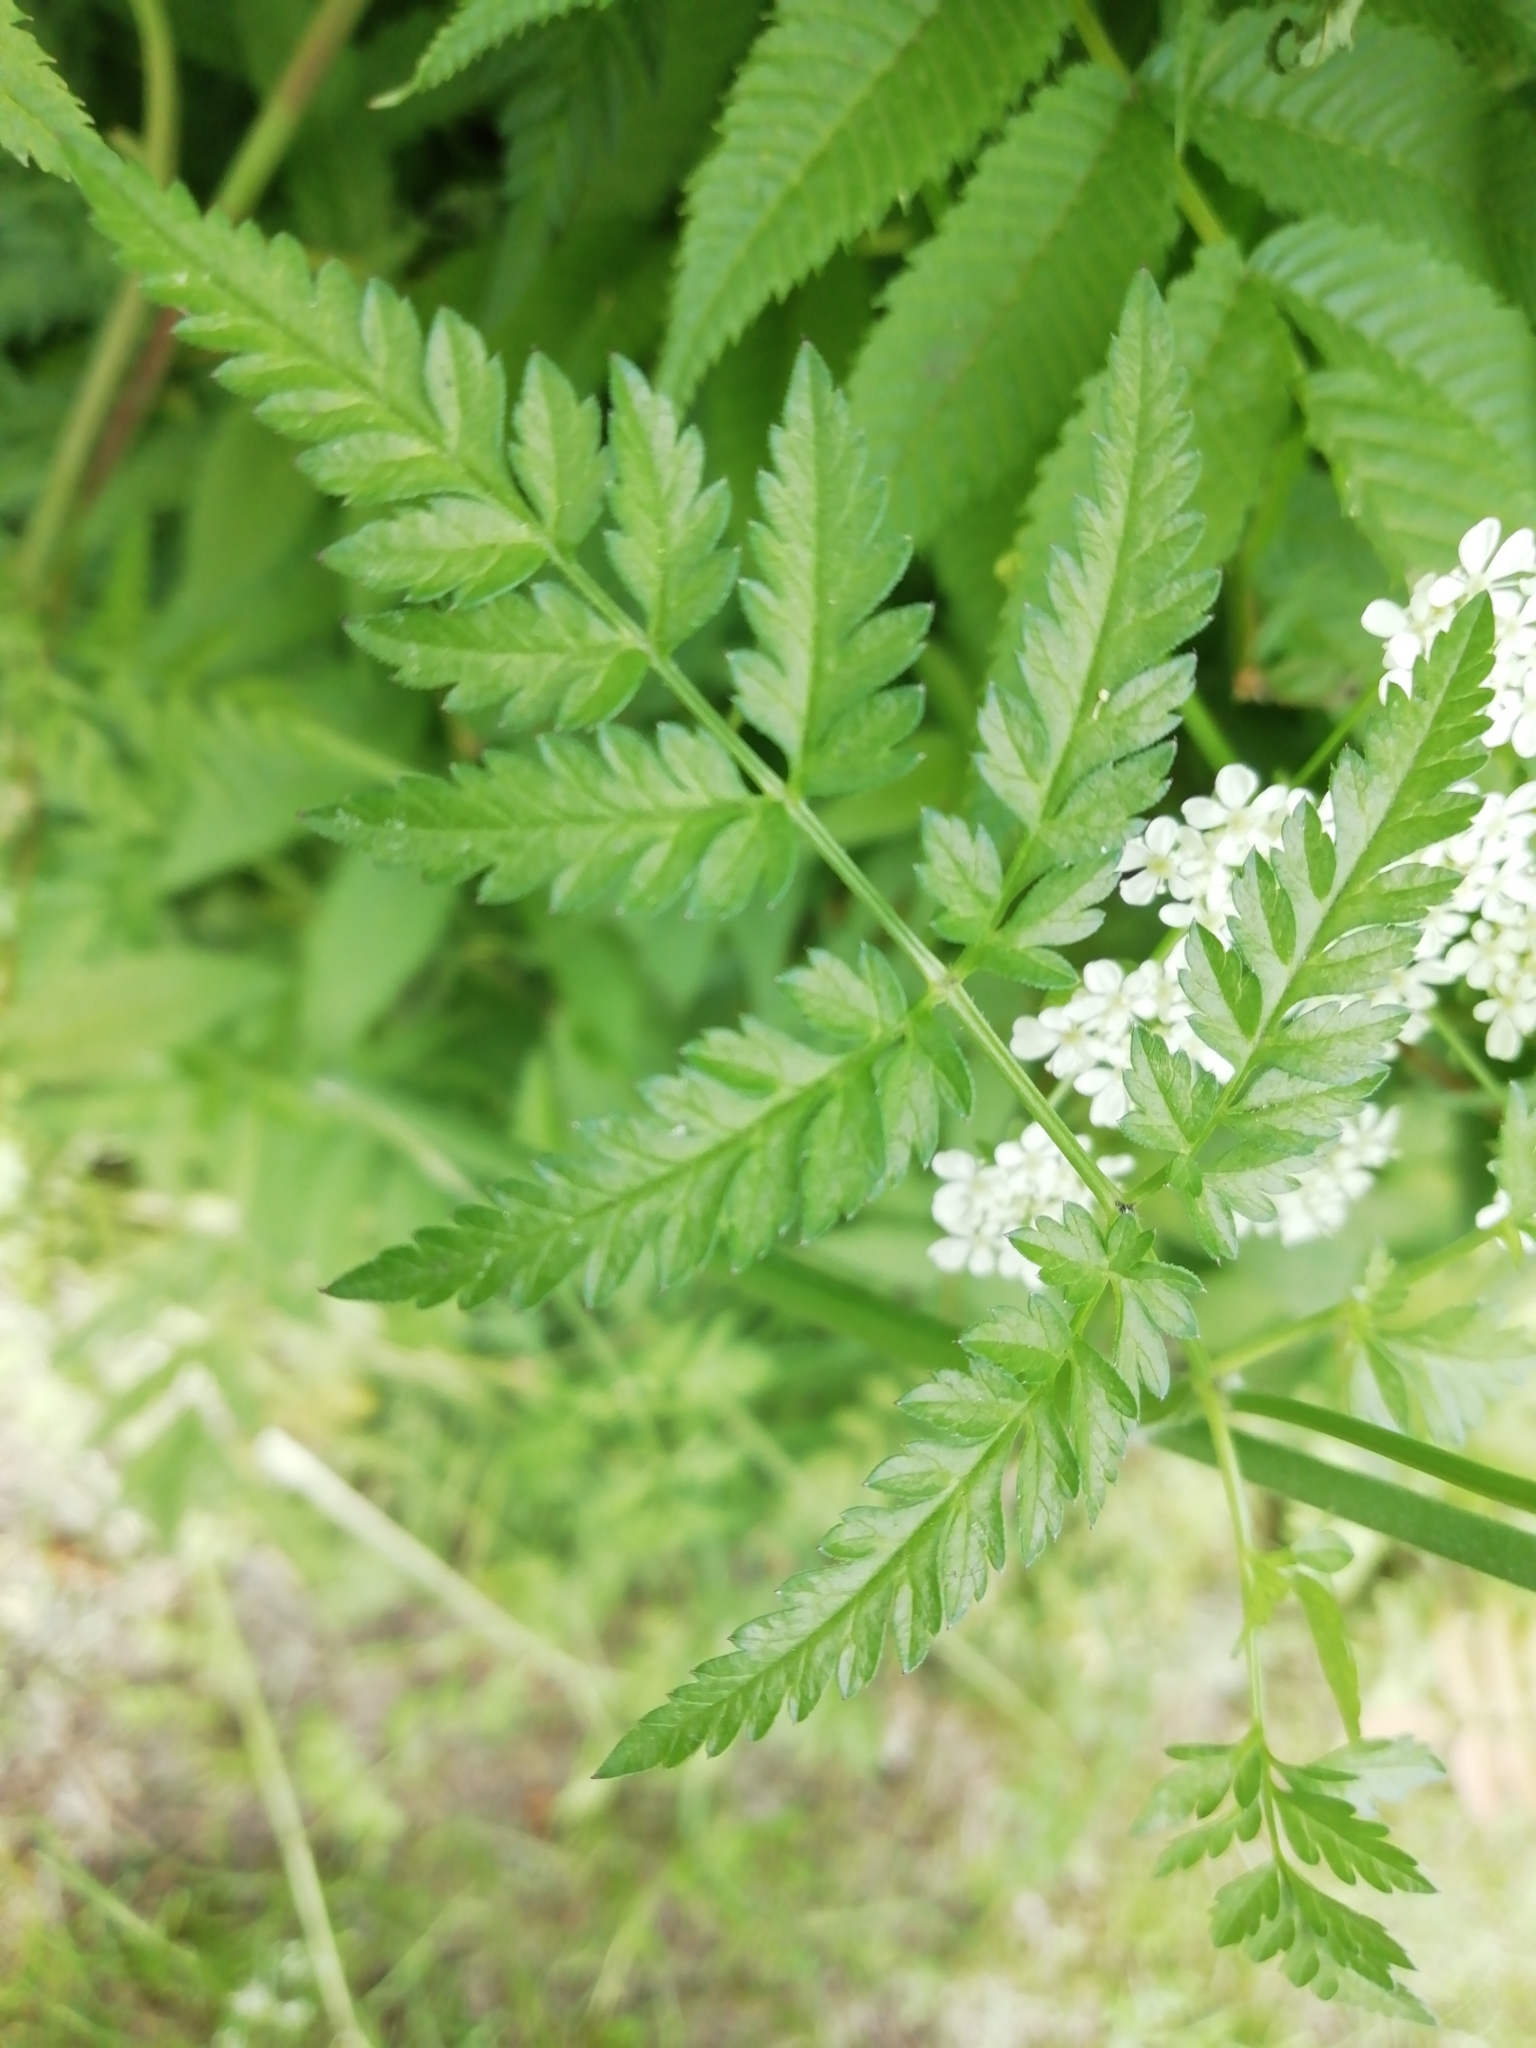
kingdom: Plantae
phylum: Tracheophyta
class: Magnoliopsida
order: Apiales
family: Apiaceae
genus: Anthriscus
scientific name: Anthriscus sylvestris
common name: Cow parsley
